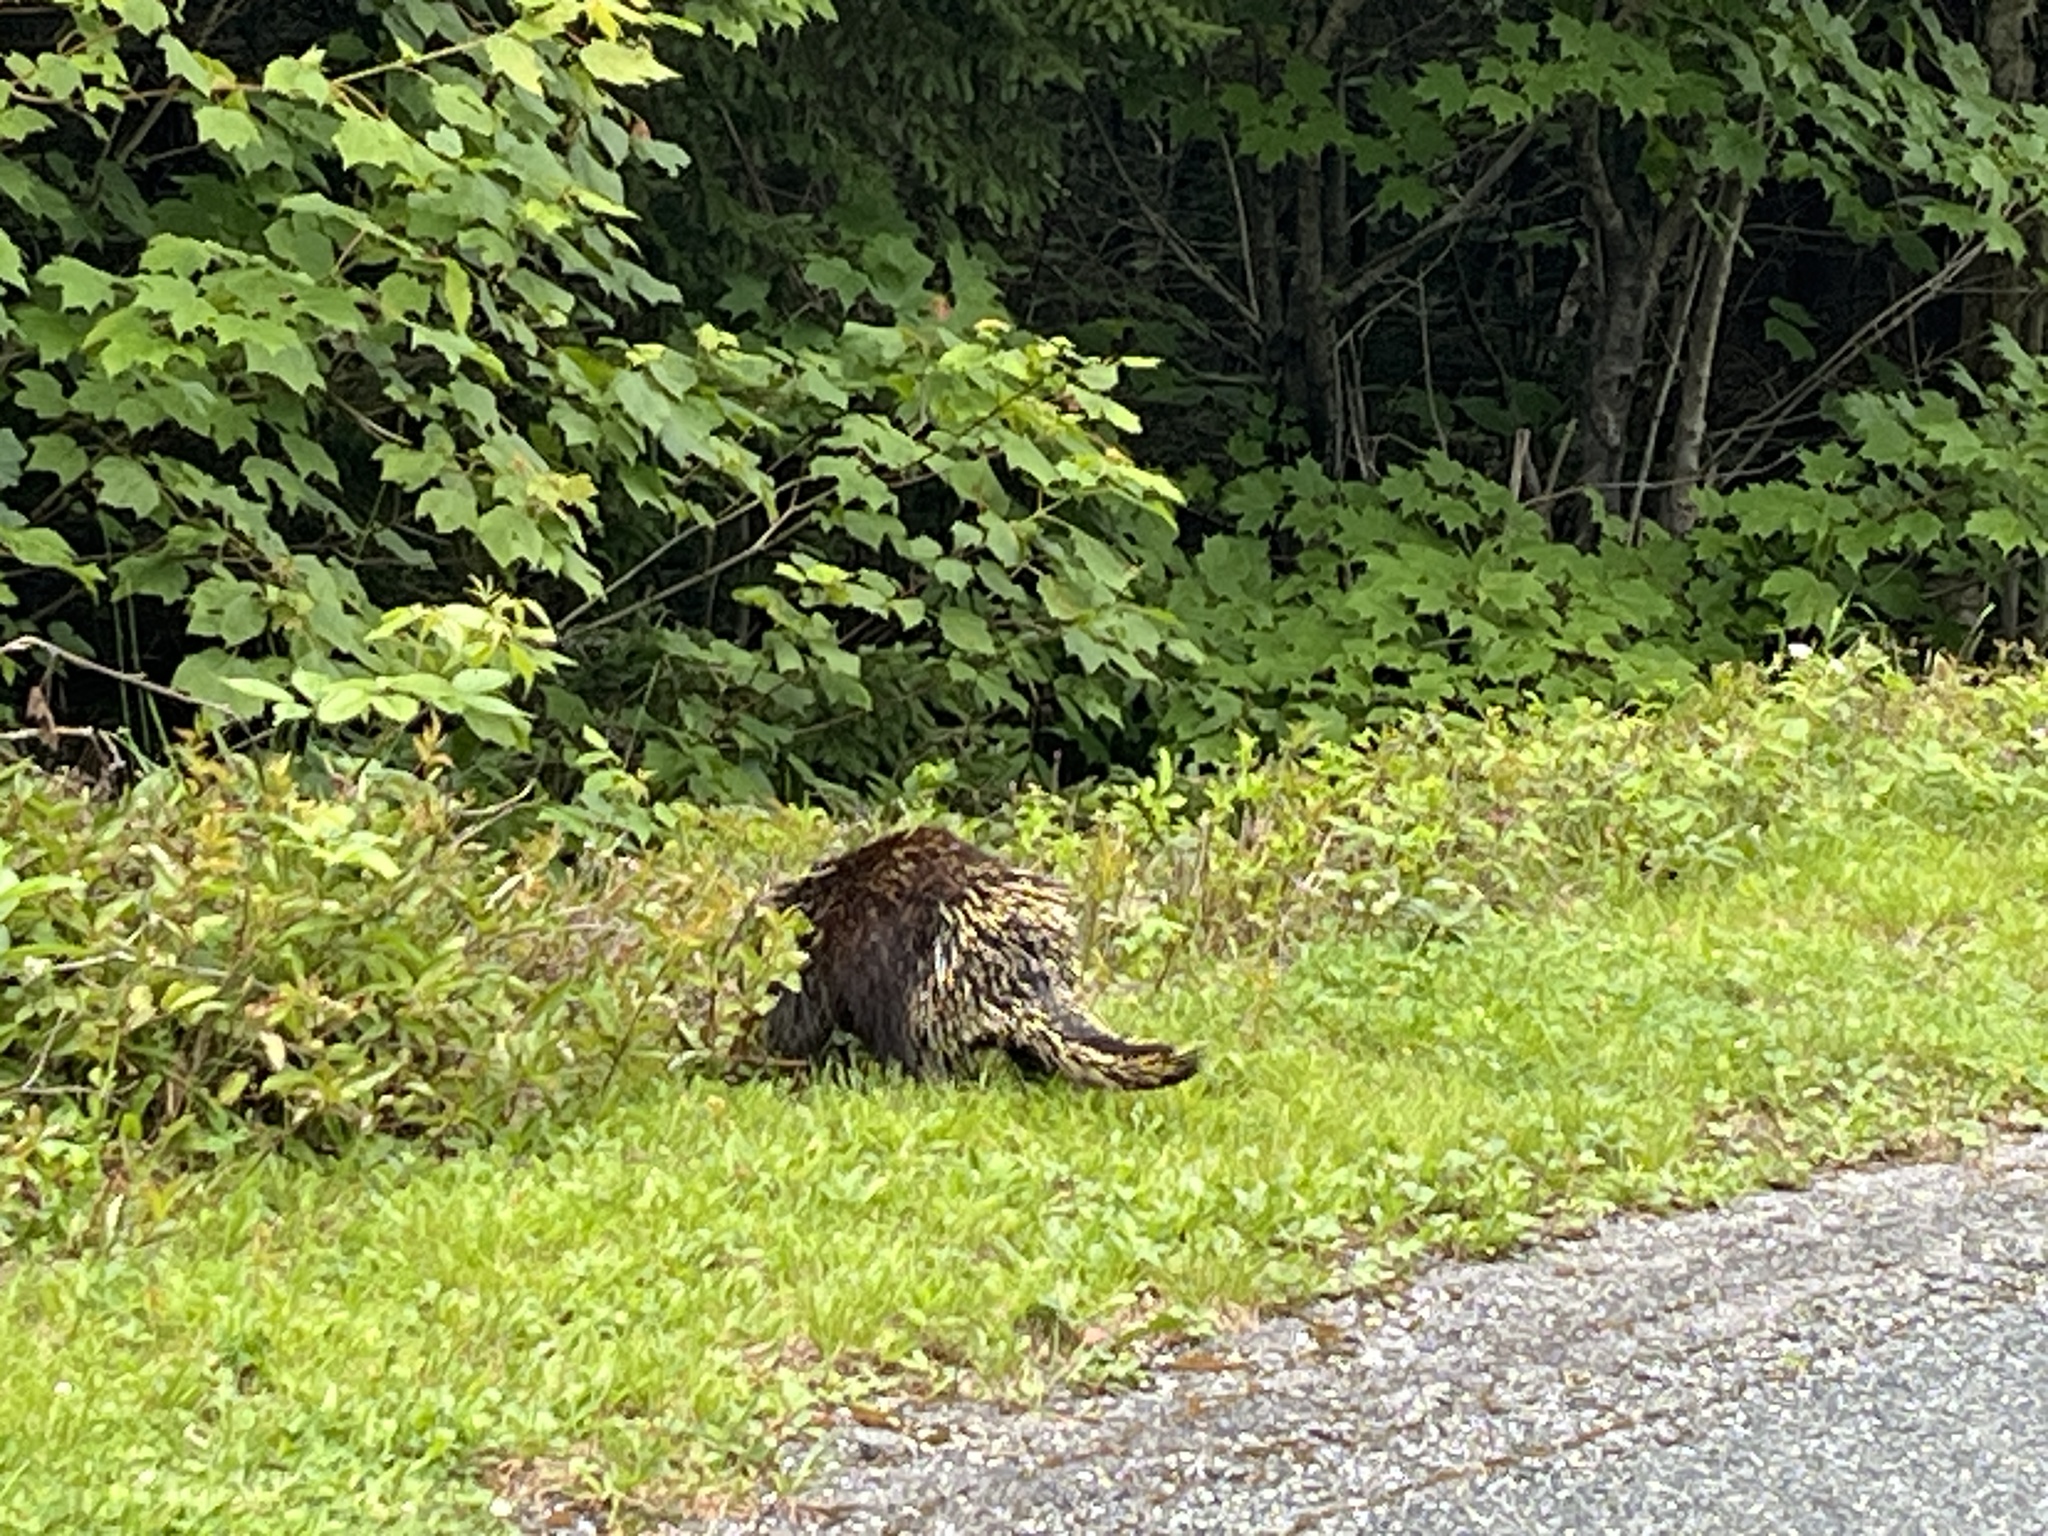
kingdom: Animalia
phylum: Chordata
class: Mammalia
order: Rodentia
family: Erethizontidae
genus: Erethizon
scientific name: Erethizon dorsatus
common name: North american porcupine
